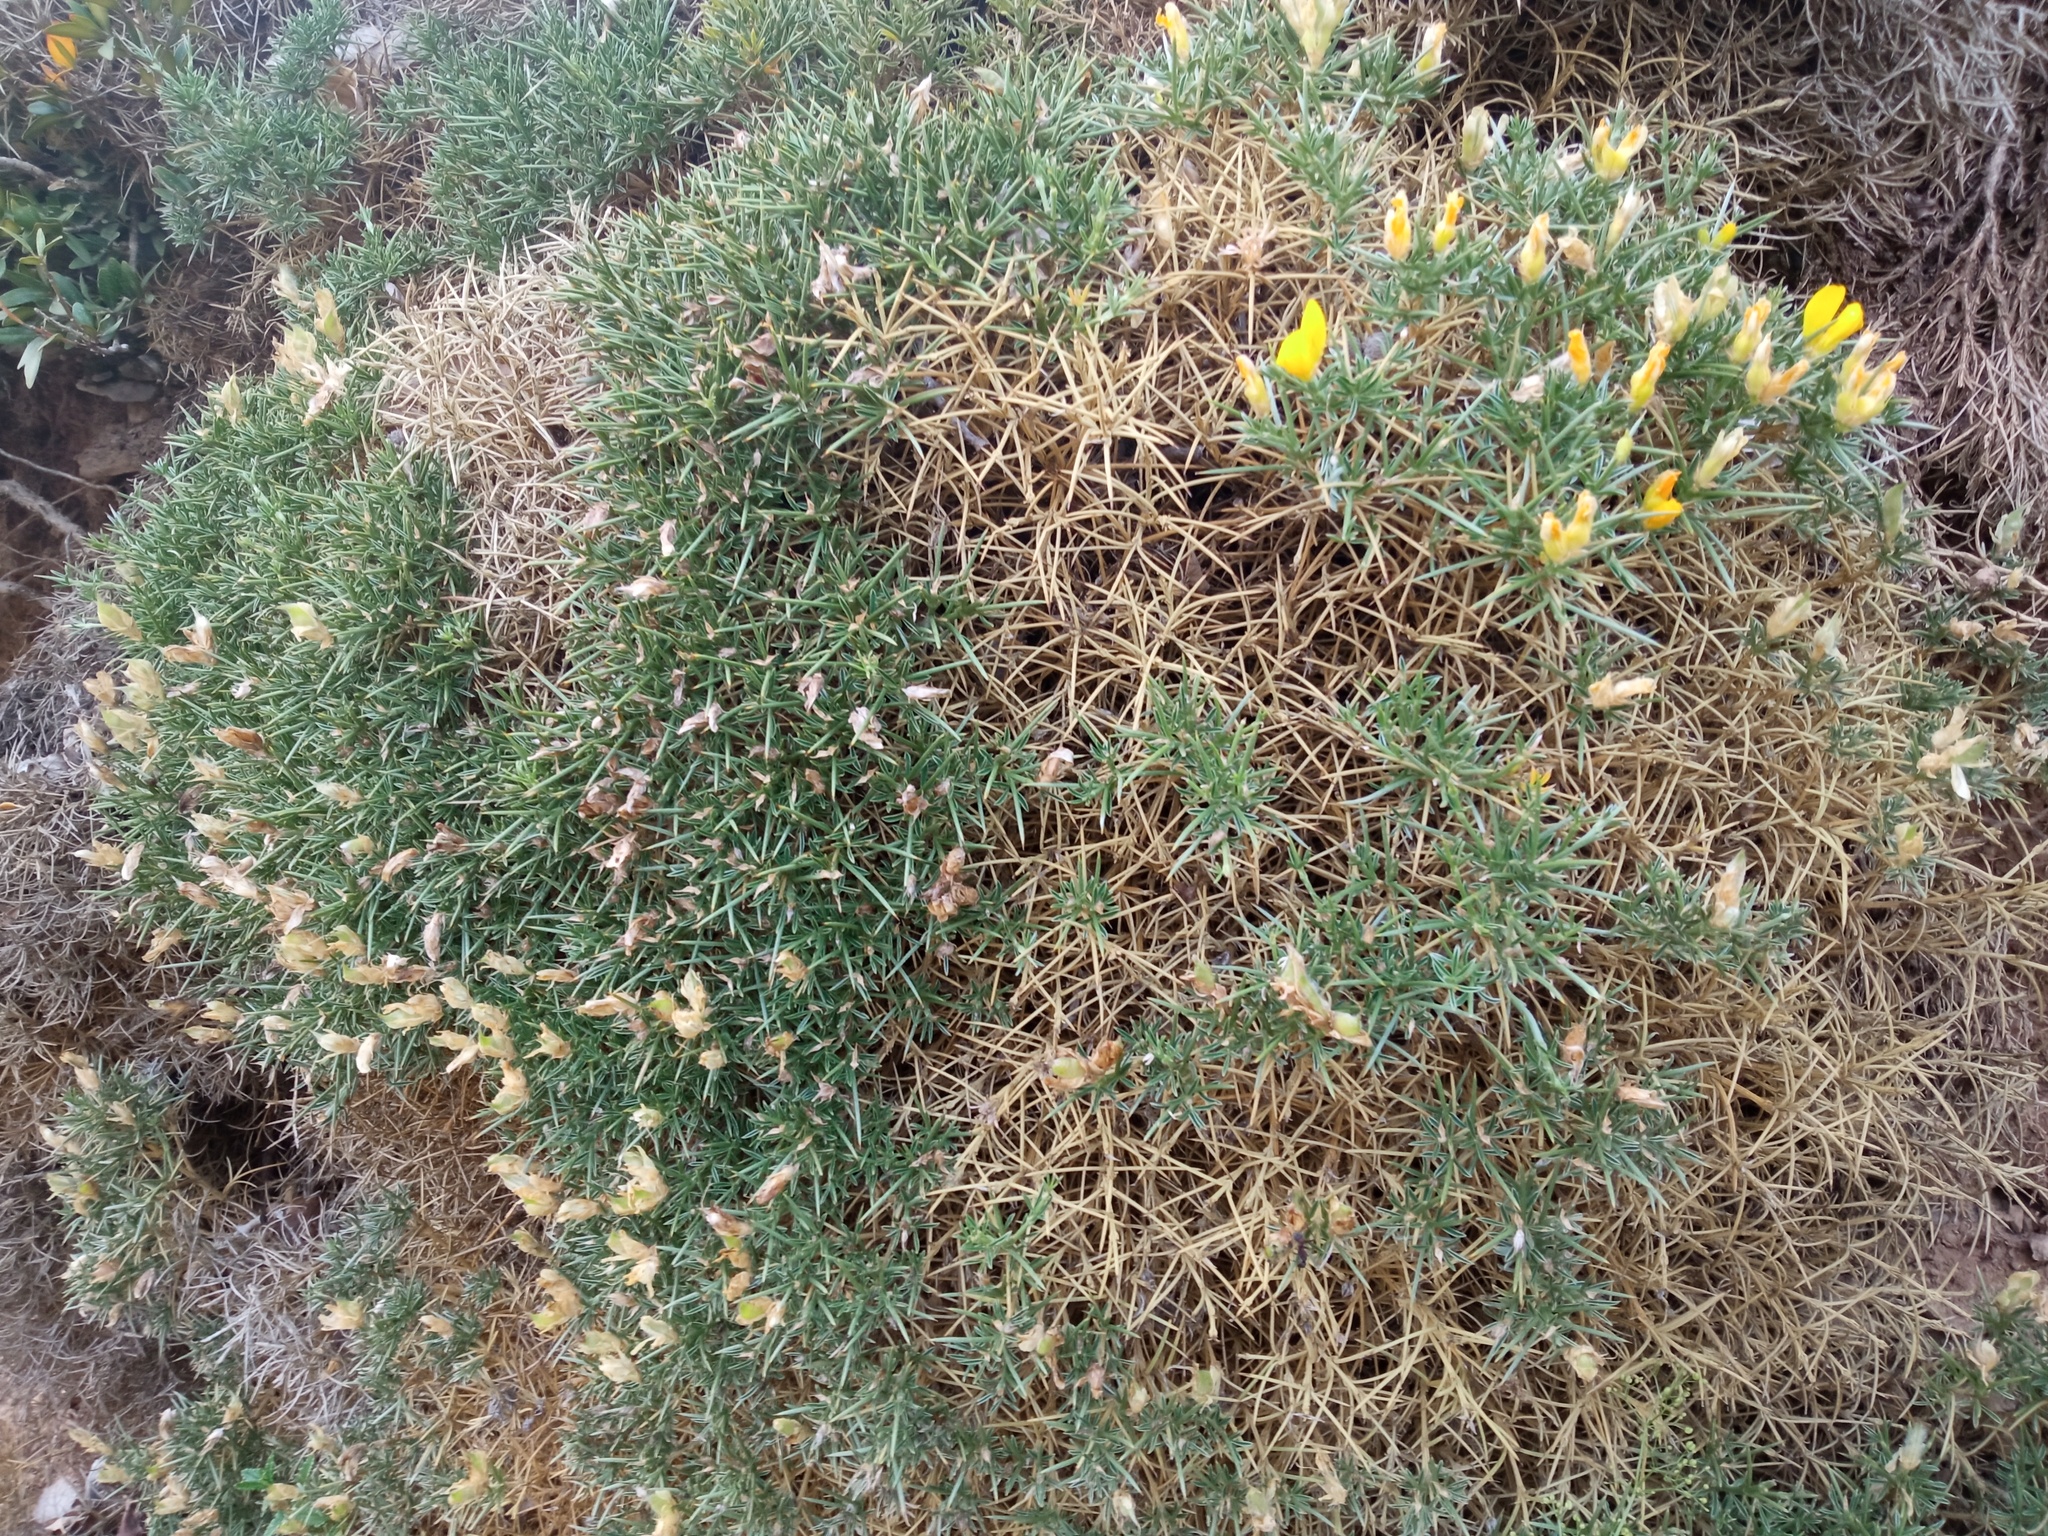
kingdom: Plantae
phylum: Tracheophyta
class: Magnoliopsida
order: Fabales
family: Fabaceae
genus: Echinospartum
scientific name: Echinospartum horridum
